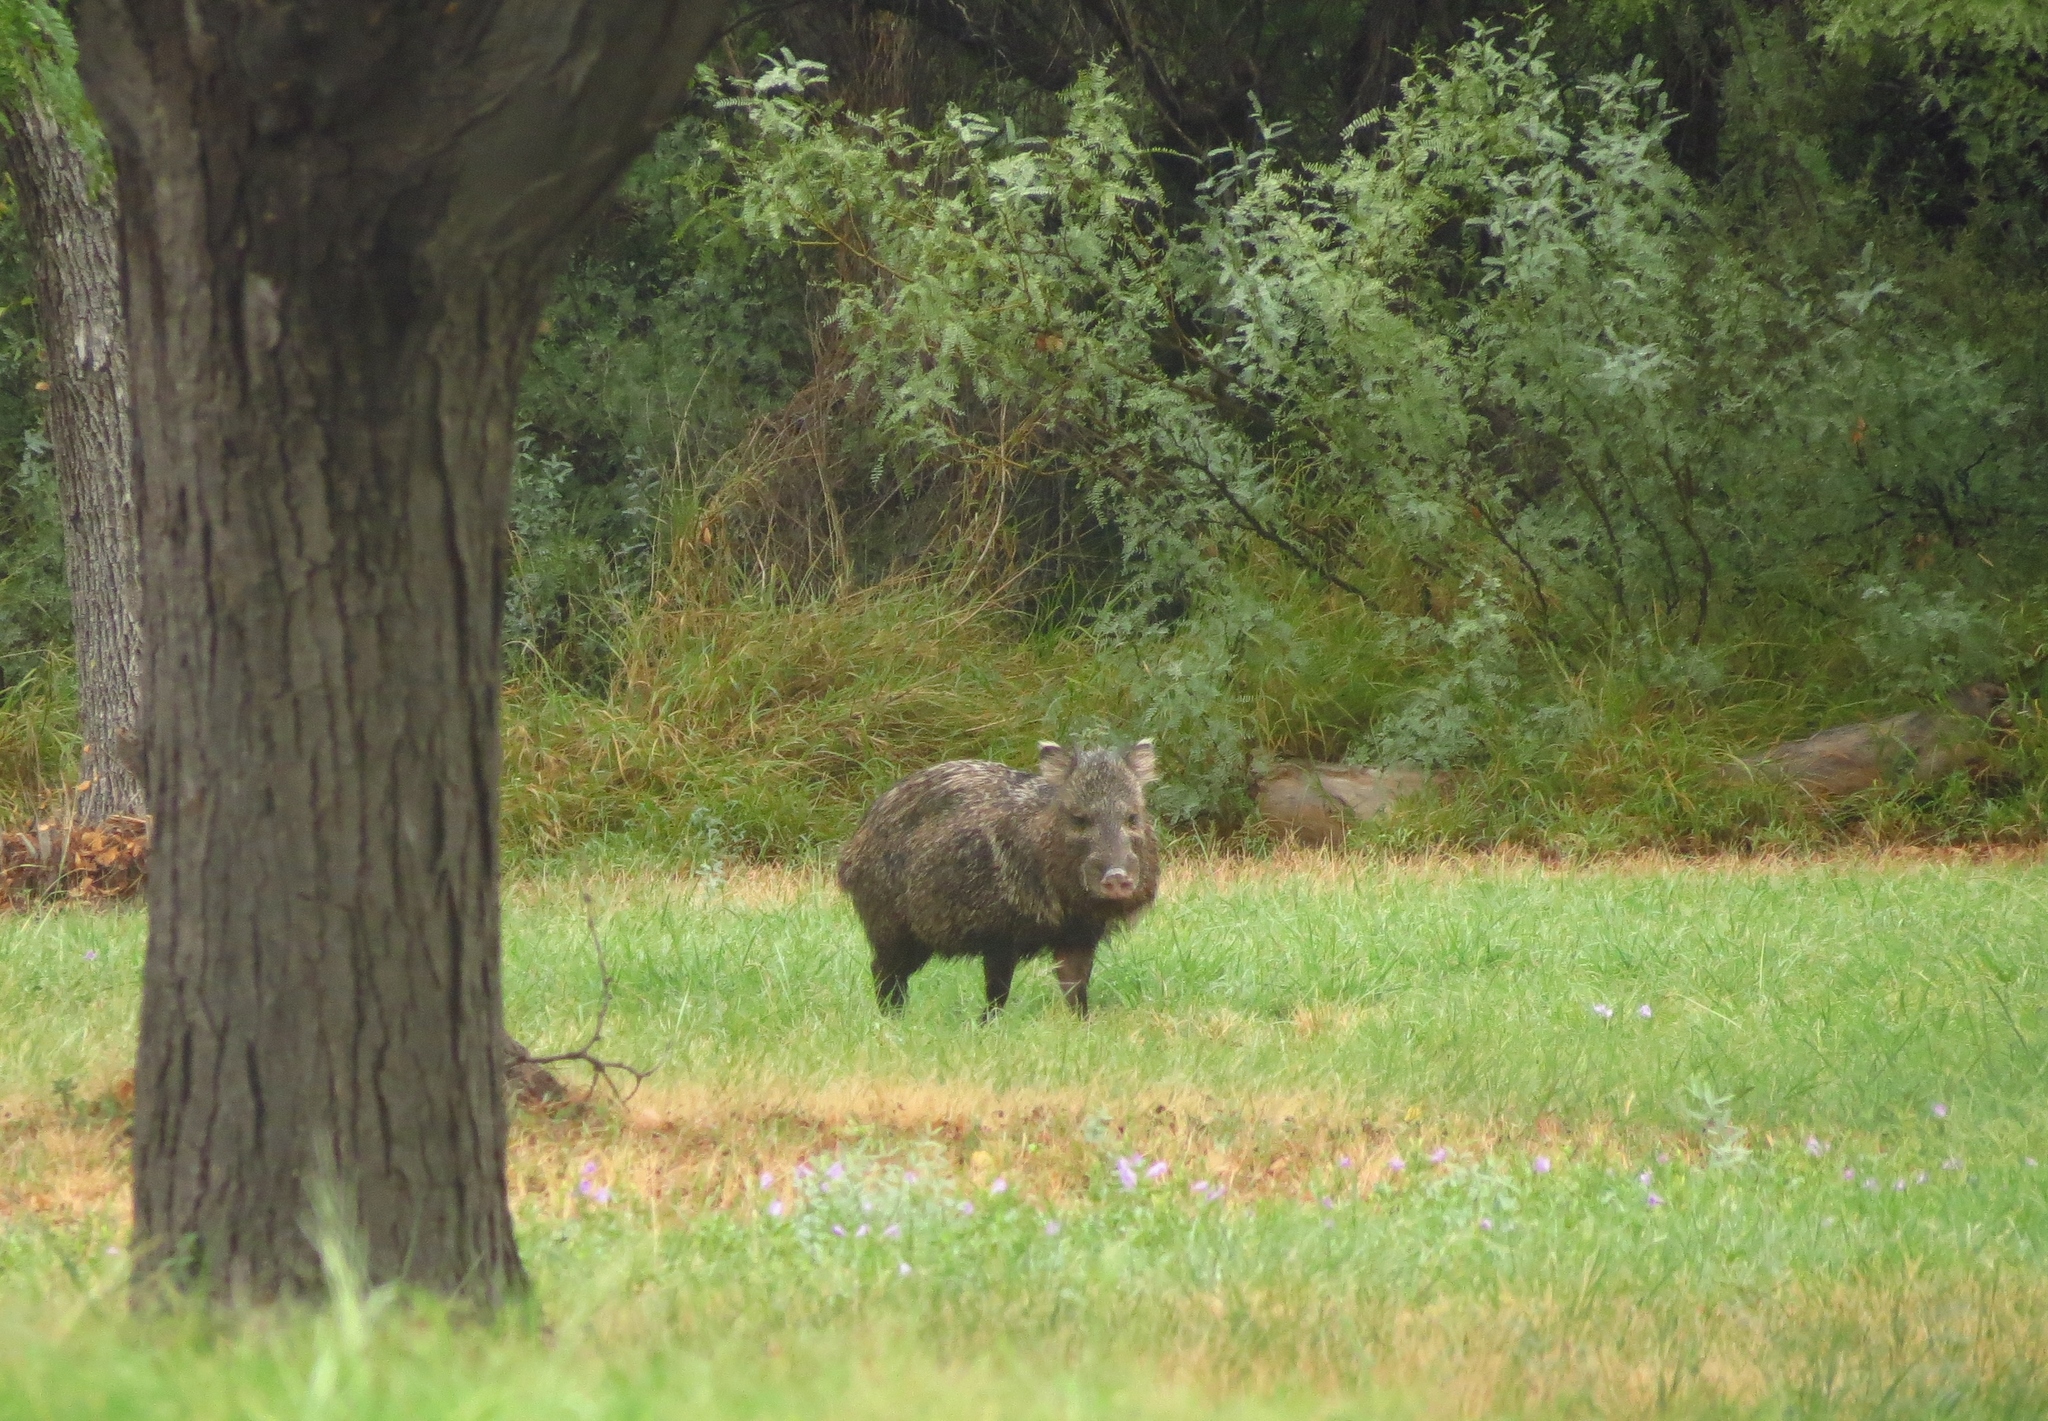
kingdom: Animalia
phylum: Chordata
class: Mammalia
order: Artiodactyla
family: Tayassuidae
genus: Pecari
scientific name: Pecari tajacu
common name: Collared peccary
